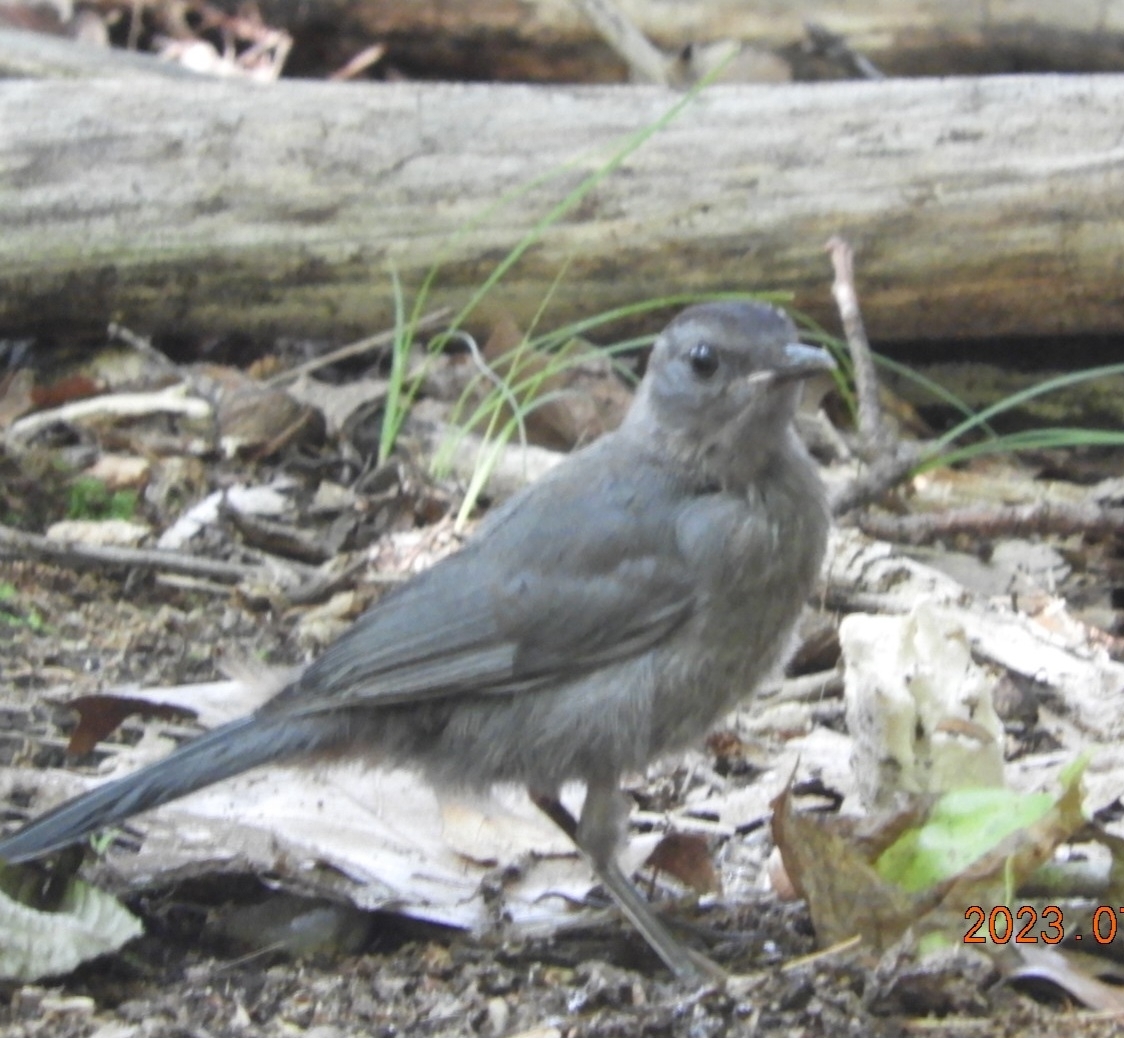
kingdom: Animalia
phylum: Chordata
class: Aves
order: Passeriformes
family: Mimidae
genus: Dumetella
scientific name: Dumetella carolinensis
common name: Gray catbird
